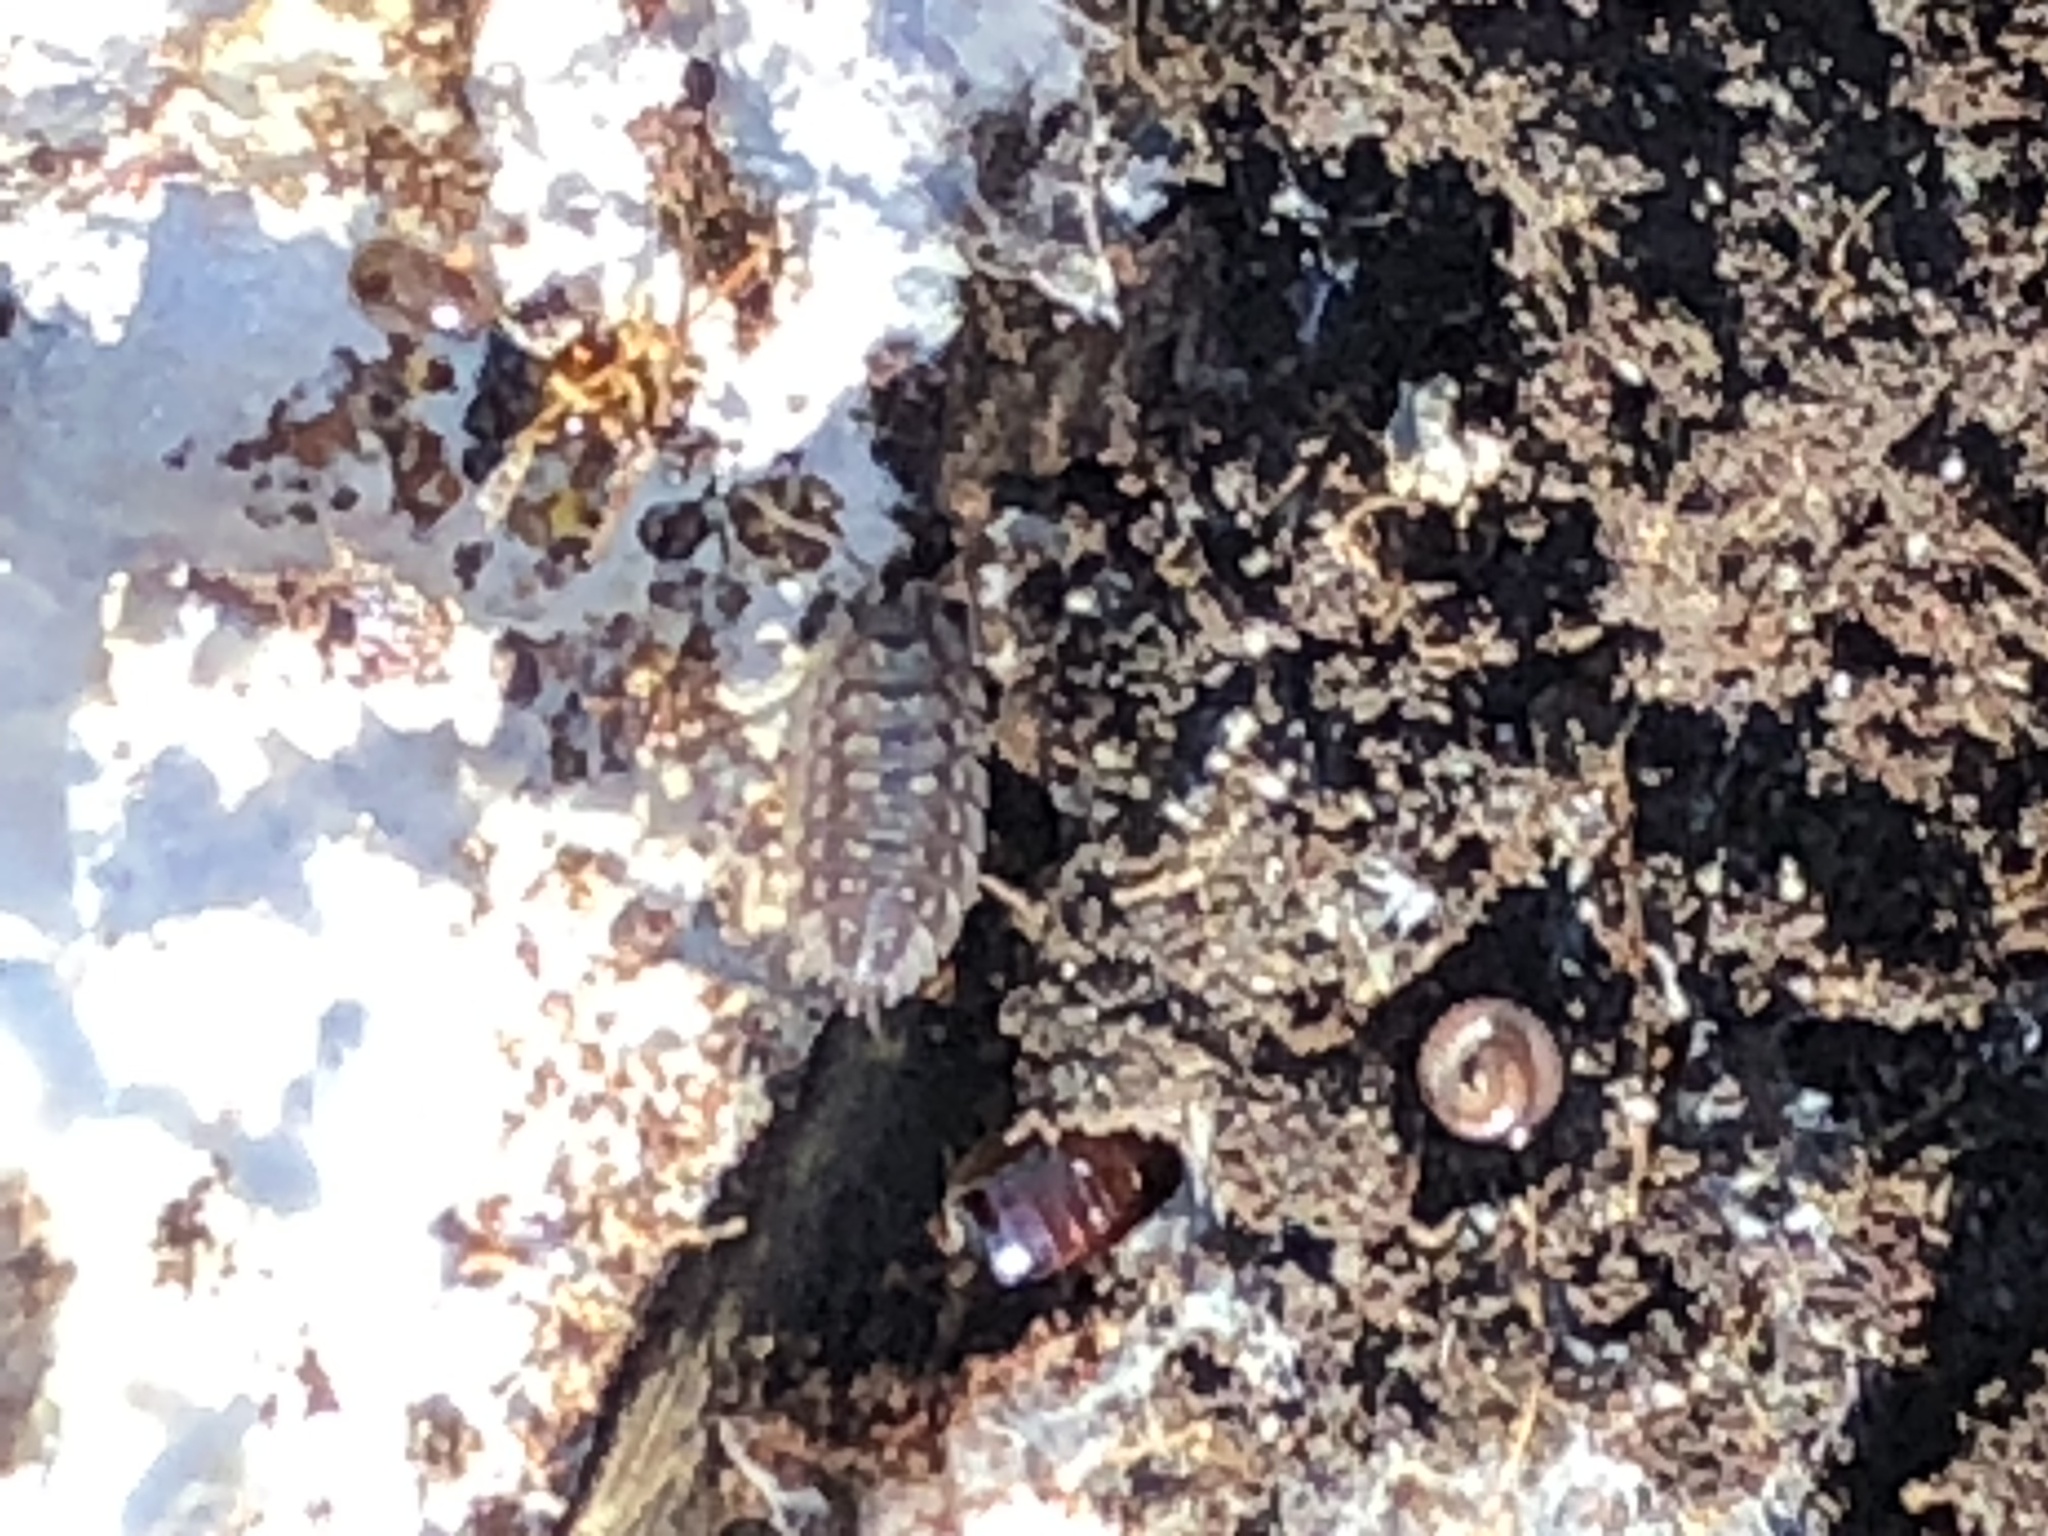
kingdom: Animalia
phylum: Arthropoda
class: Malacostraca
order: Isopoda
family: Oniscidae
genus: Oniscus
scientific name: Oniscus asellus
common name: Common shiny woodlouse
